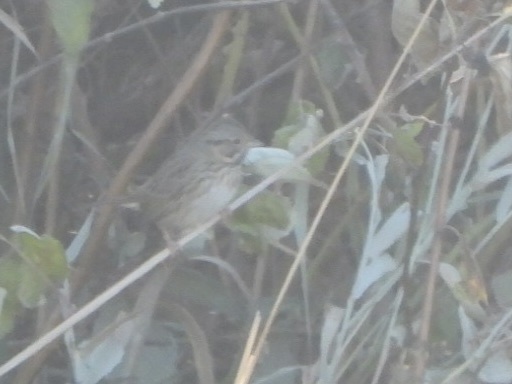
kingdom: Animalia
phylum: Chordata
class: Aves
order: Passeriformes
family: Passerellidae
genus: Melospiza
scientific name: Melospiza lincolnii
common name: Lincoln's sparrow
